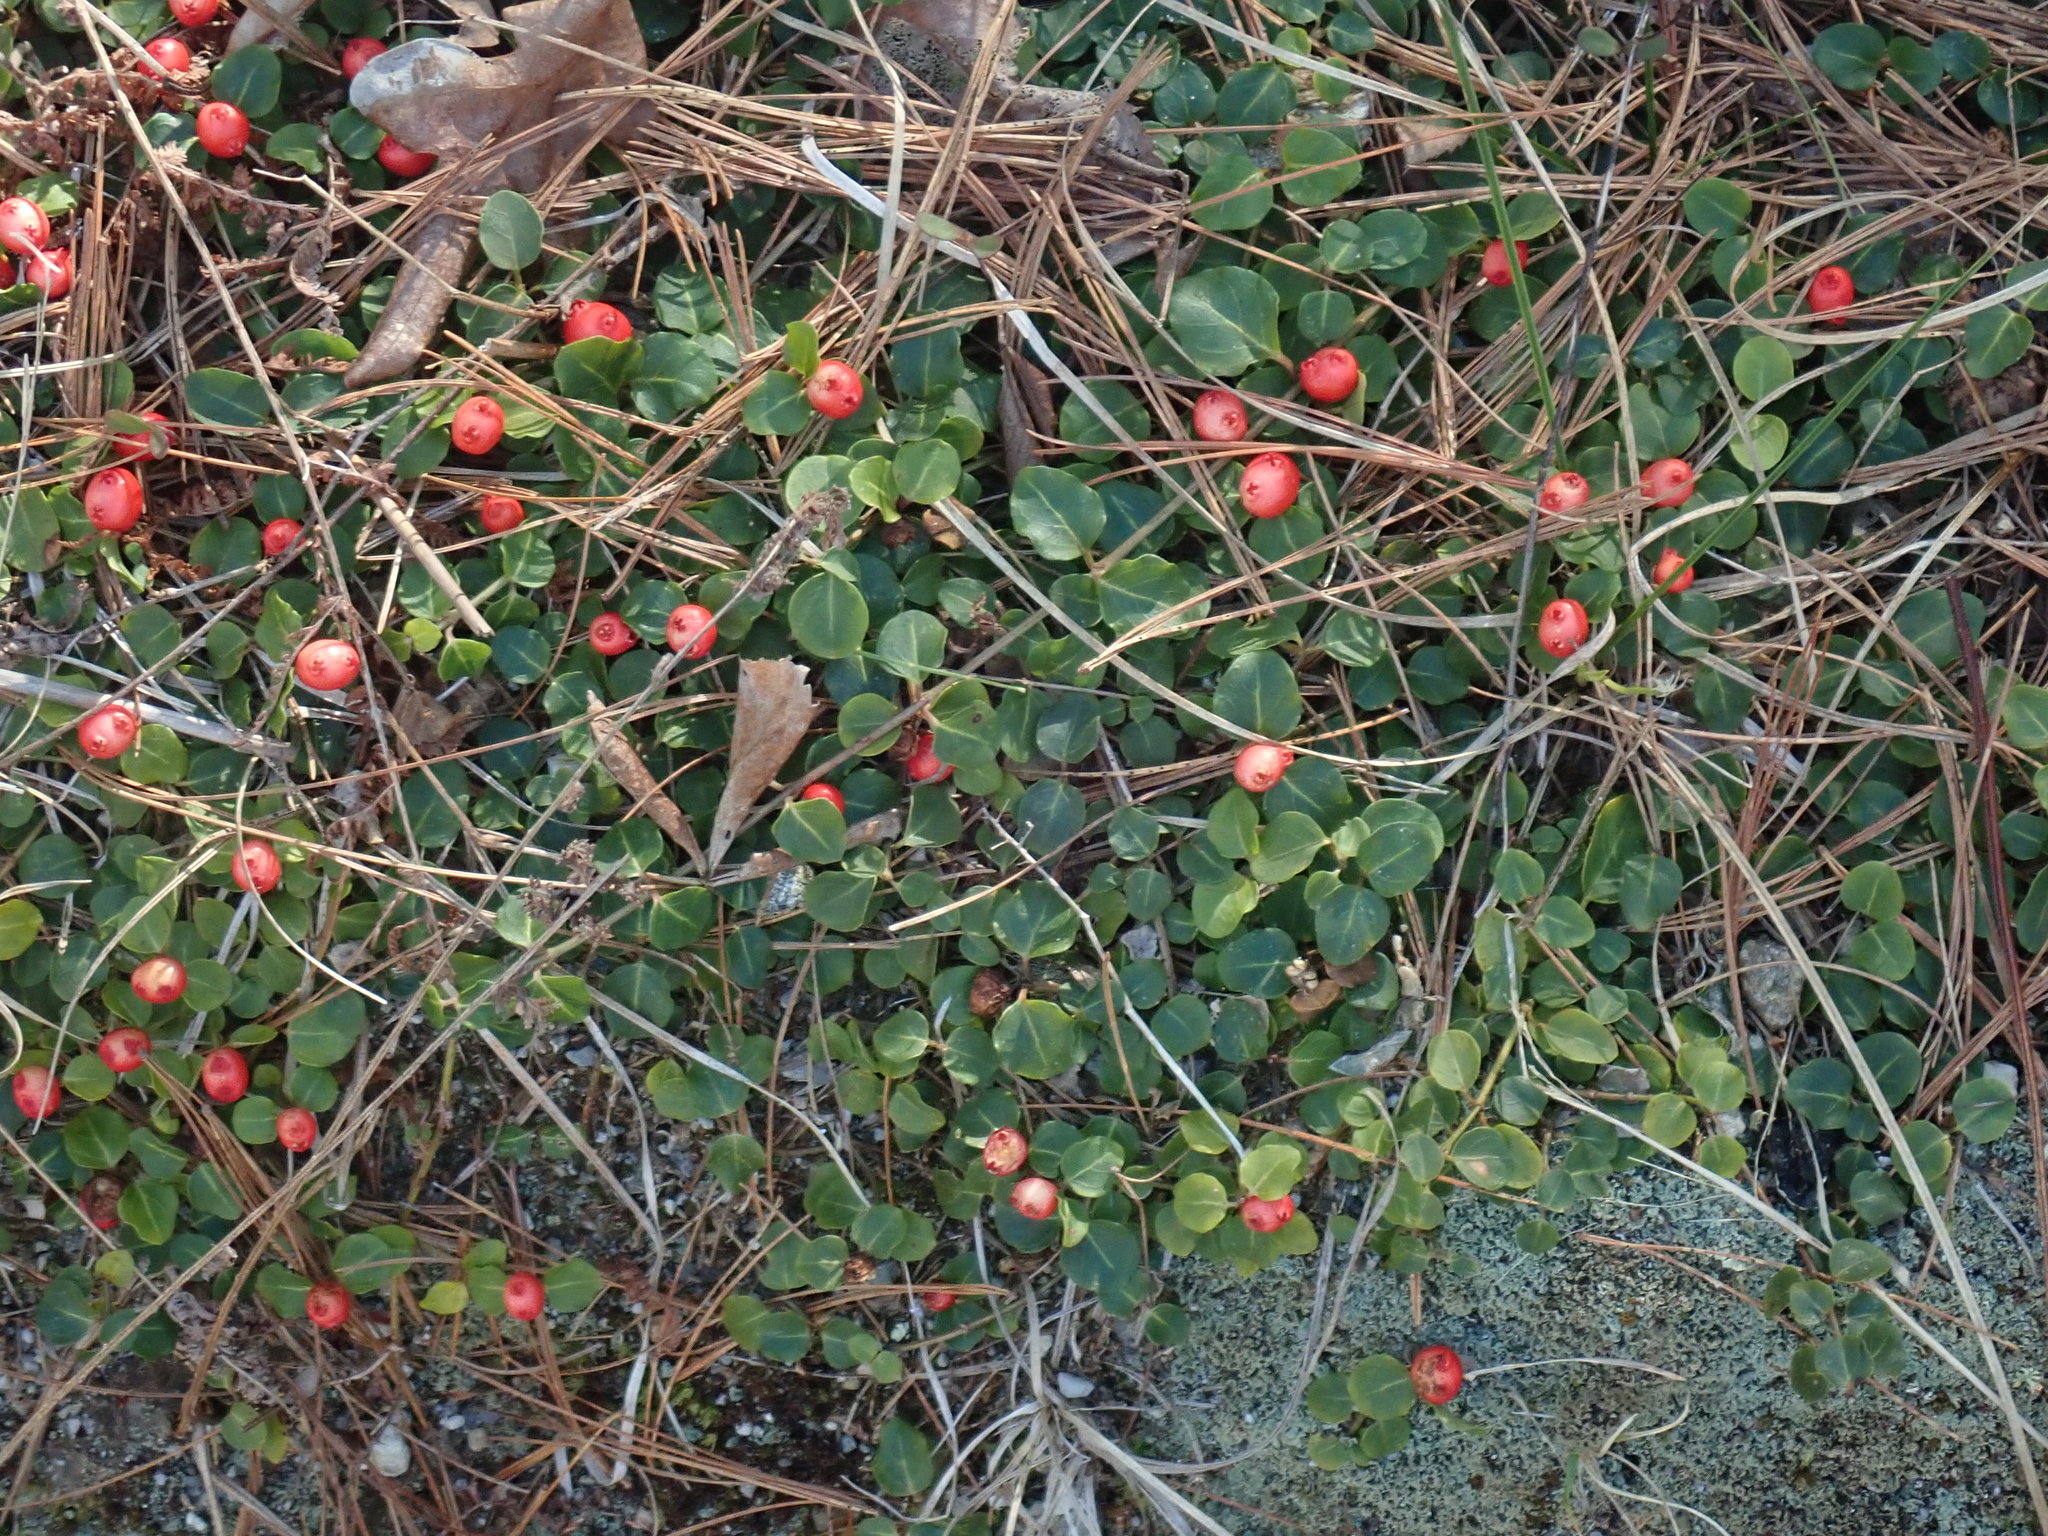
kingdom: Plantae
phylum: Tracheophyta
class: Magnoliopsida
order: Gentianales
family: Rubiaceae
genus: Mitchella
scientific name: Mitchella repens
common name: Partridge-berry
